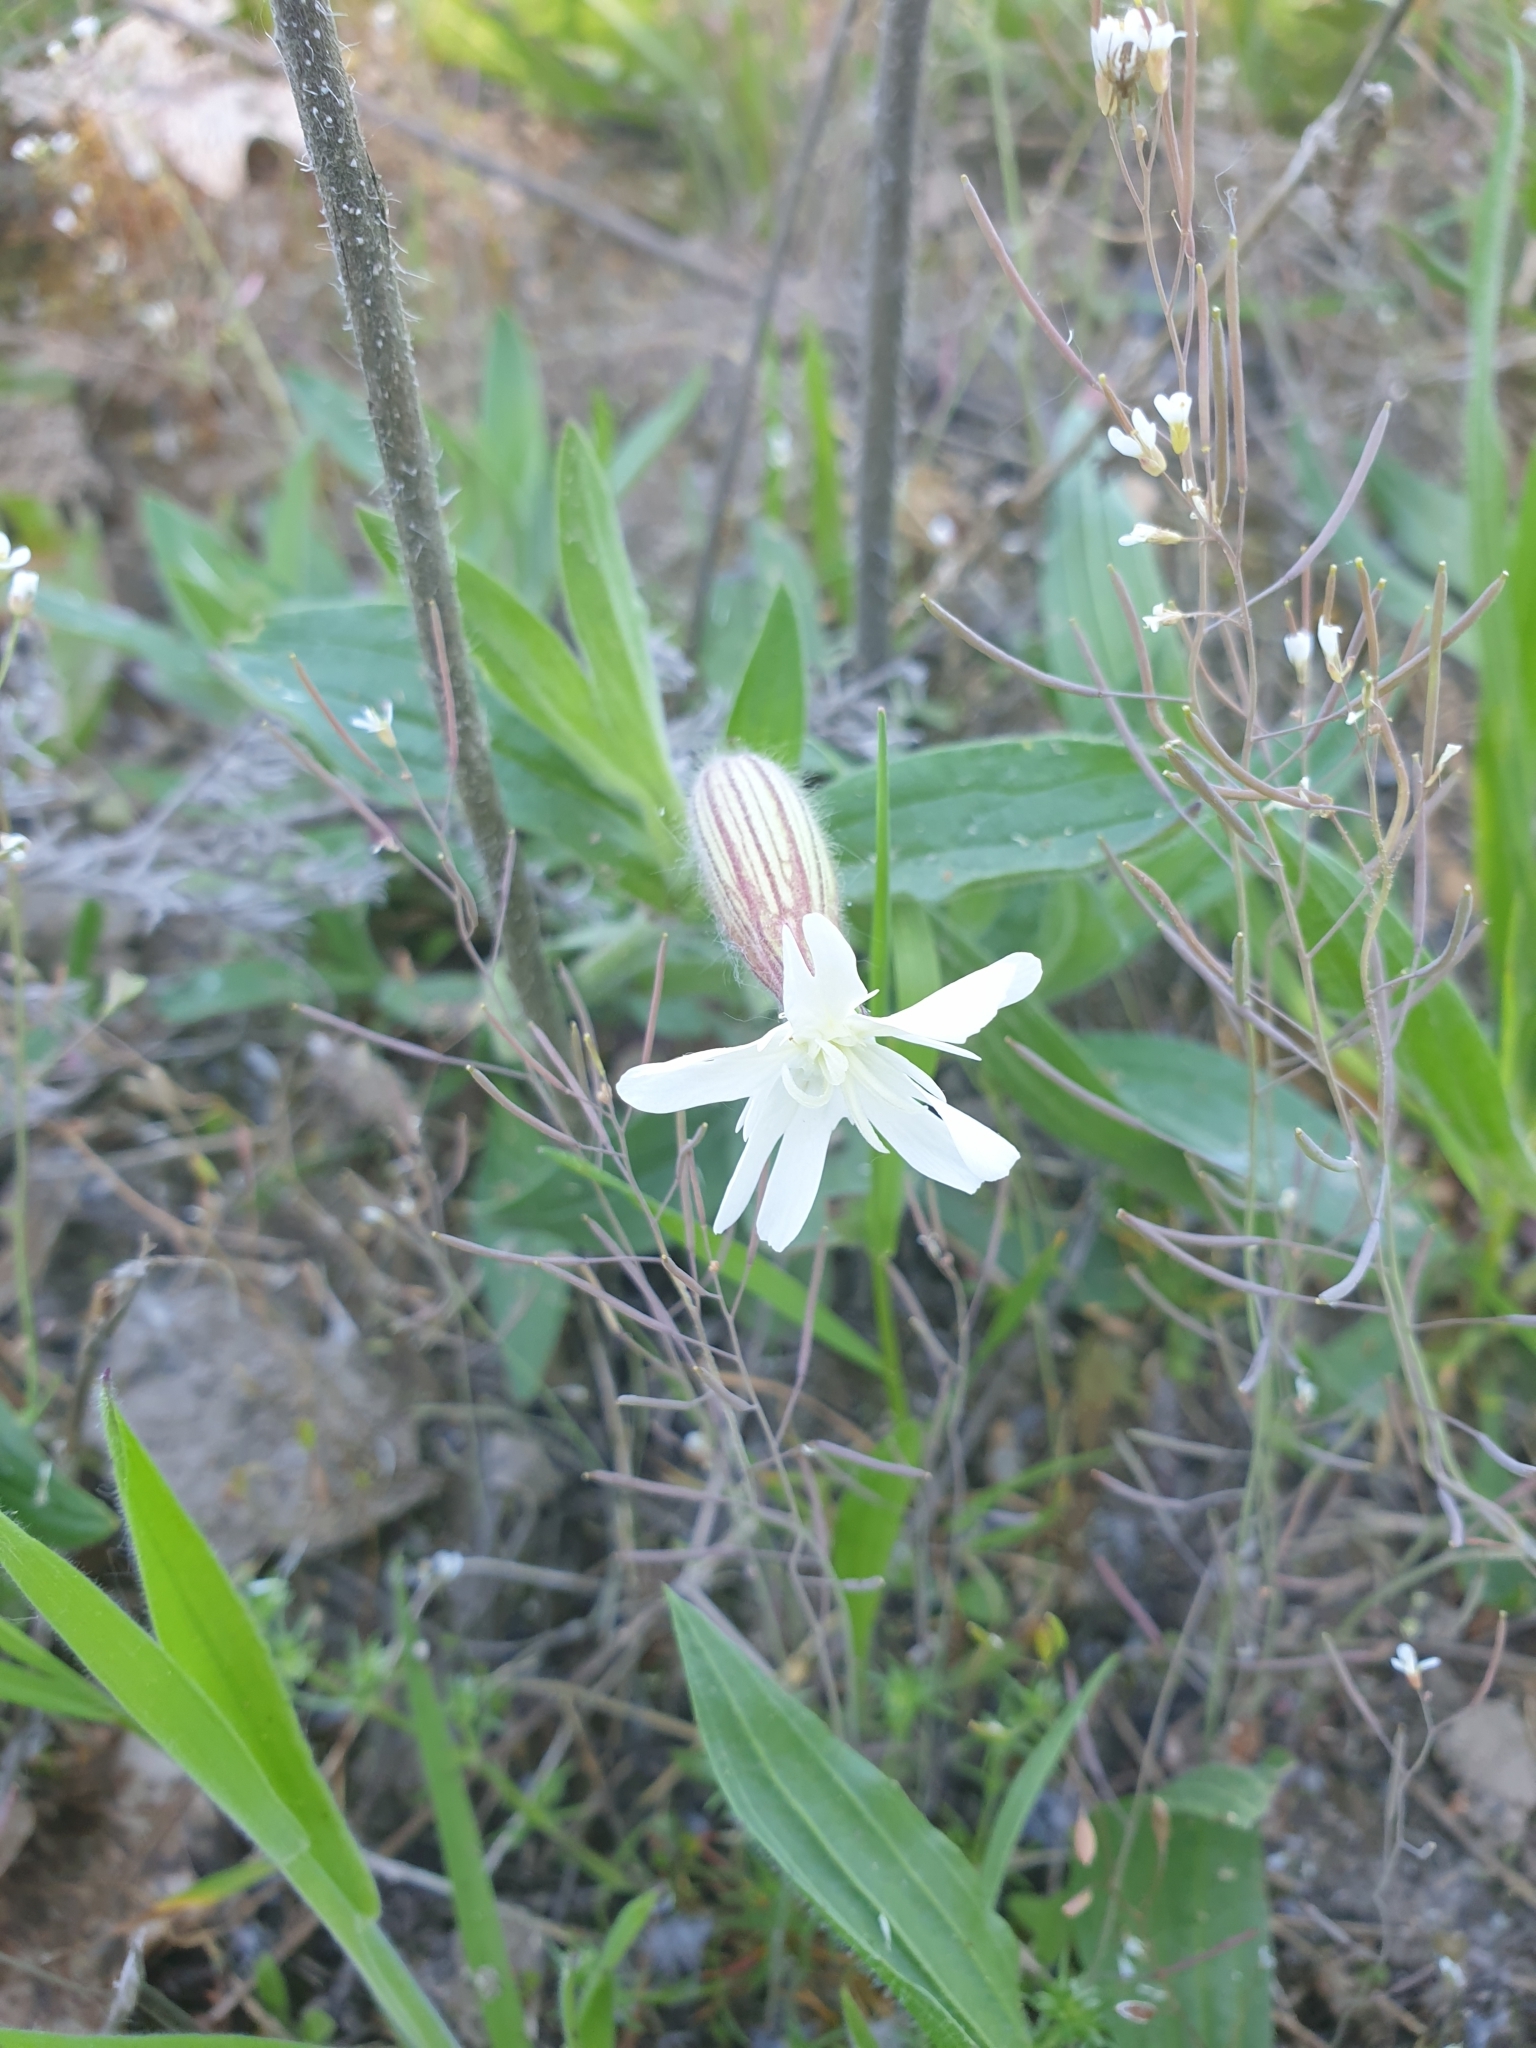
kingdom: Plantae
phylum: Tracheophyta
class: Magnoliopsida
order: Caryophyllales
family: Caryophyllaceae
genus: Silene
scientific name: Silene latifolia
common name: White campion
